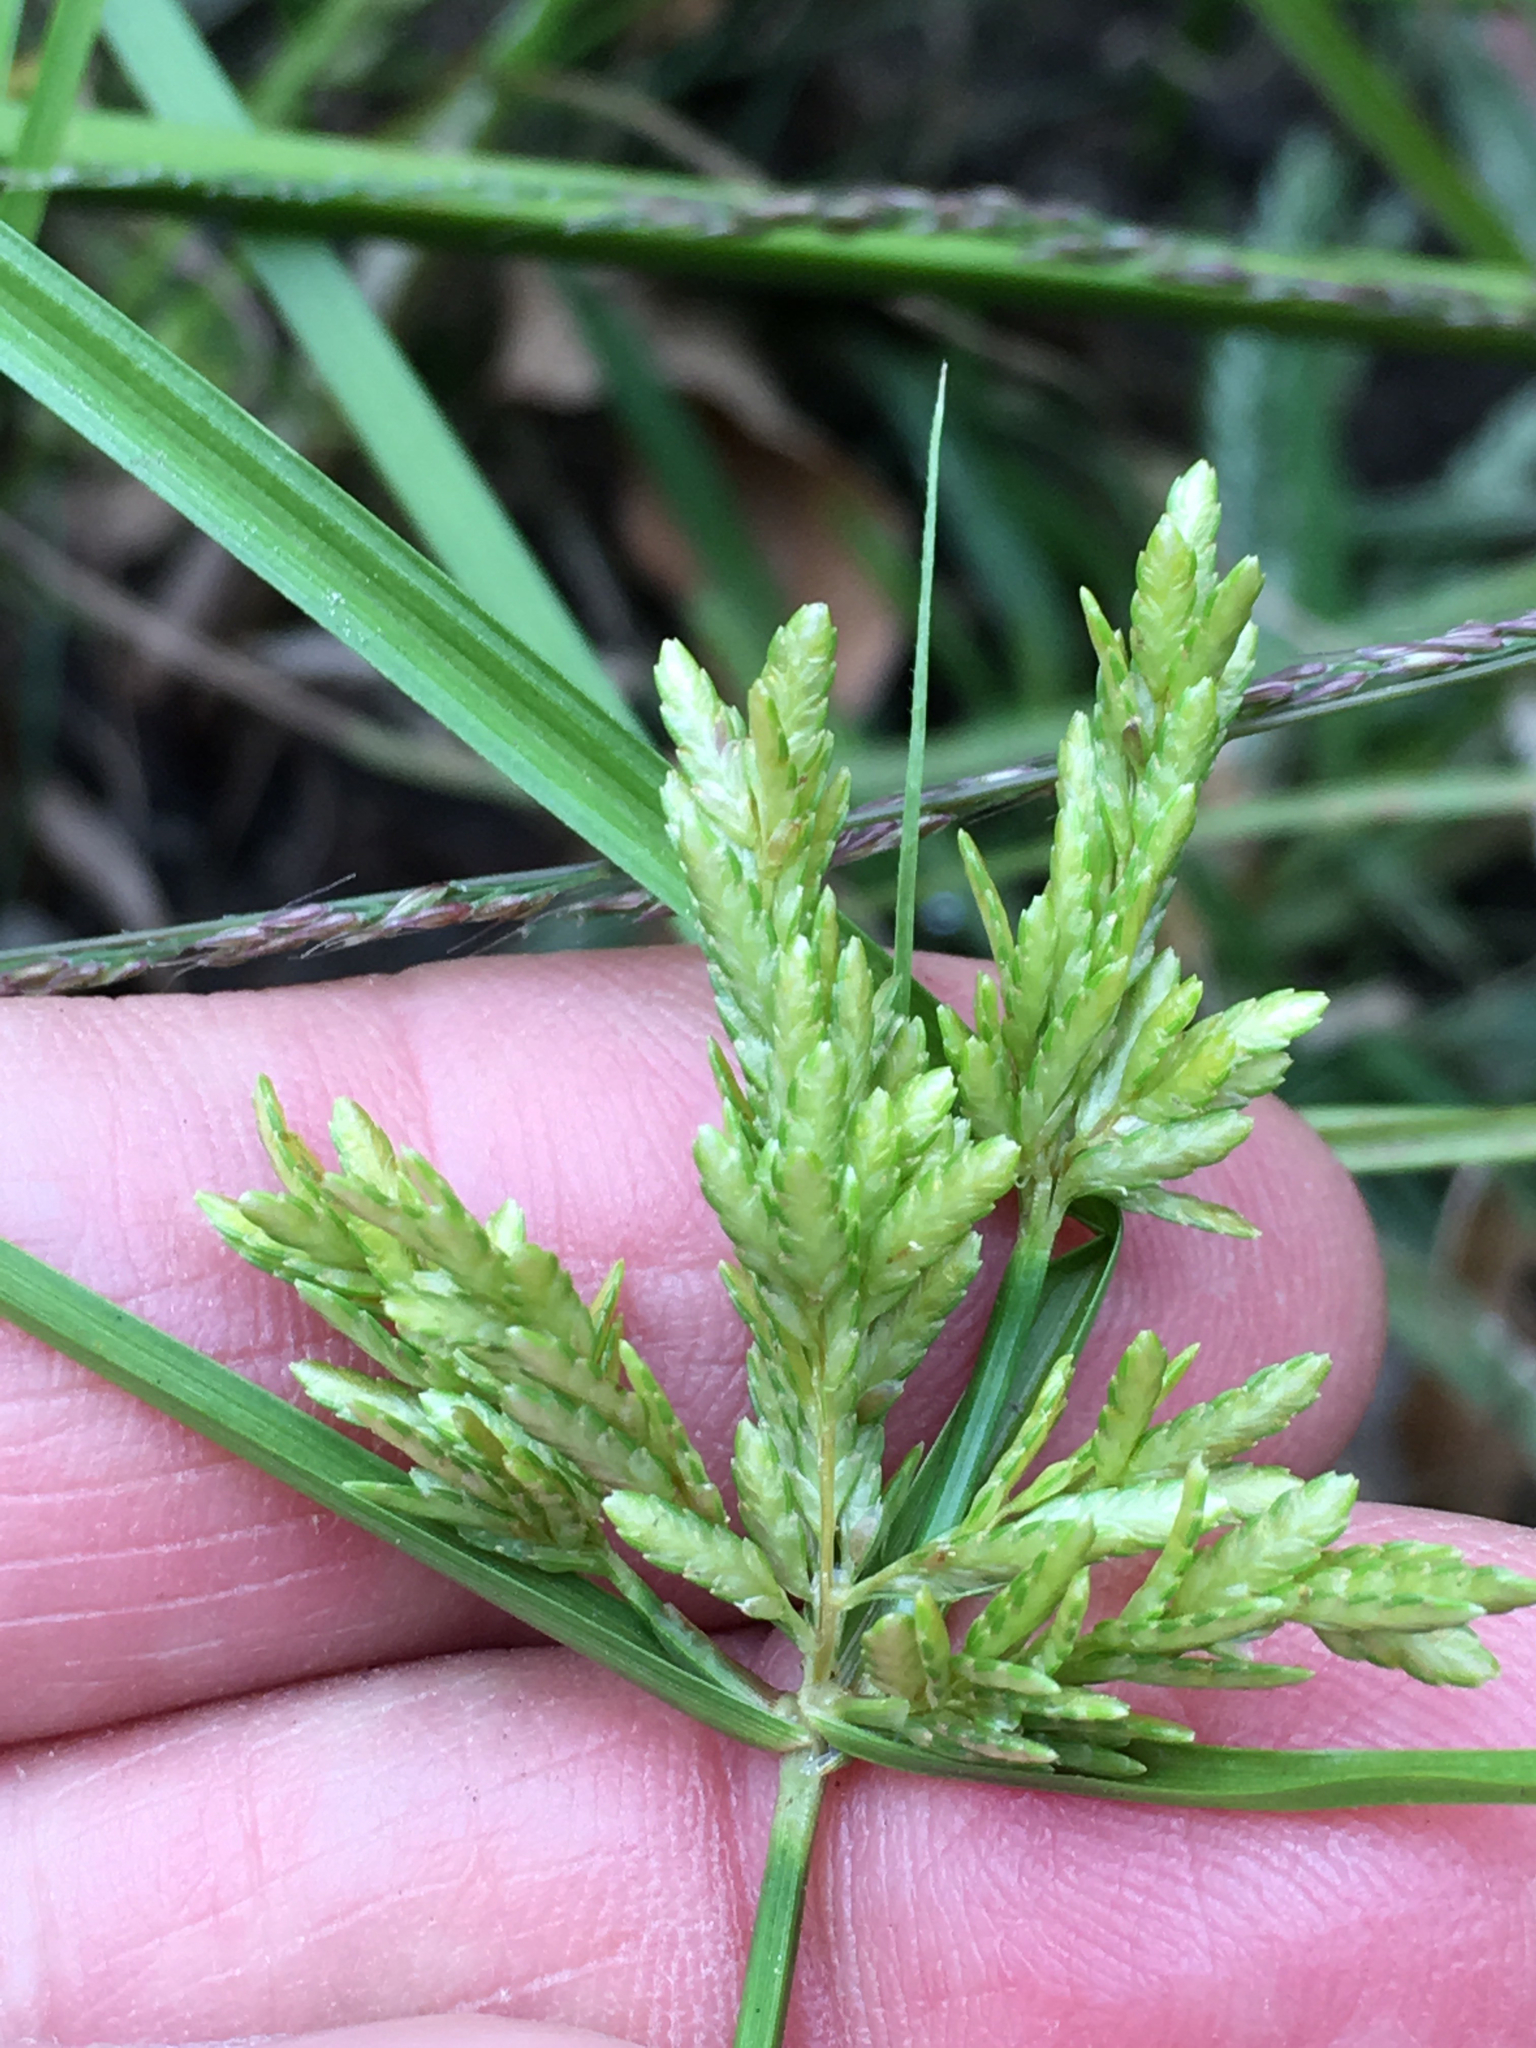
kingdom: Plantae
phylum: Tracheophyta
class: Liliopsida
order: Poales
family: Cyperaceae
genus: Cyperus
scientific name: Cyperus iria
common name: Ricefield flatsedge
